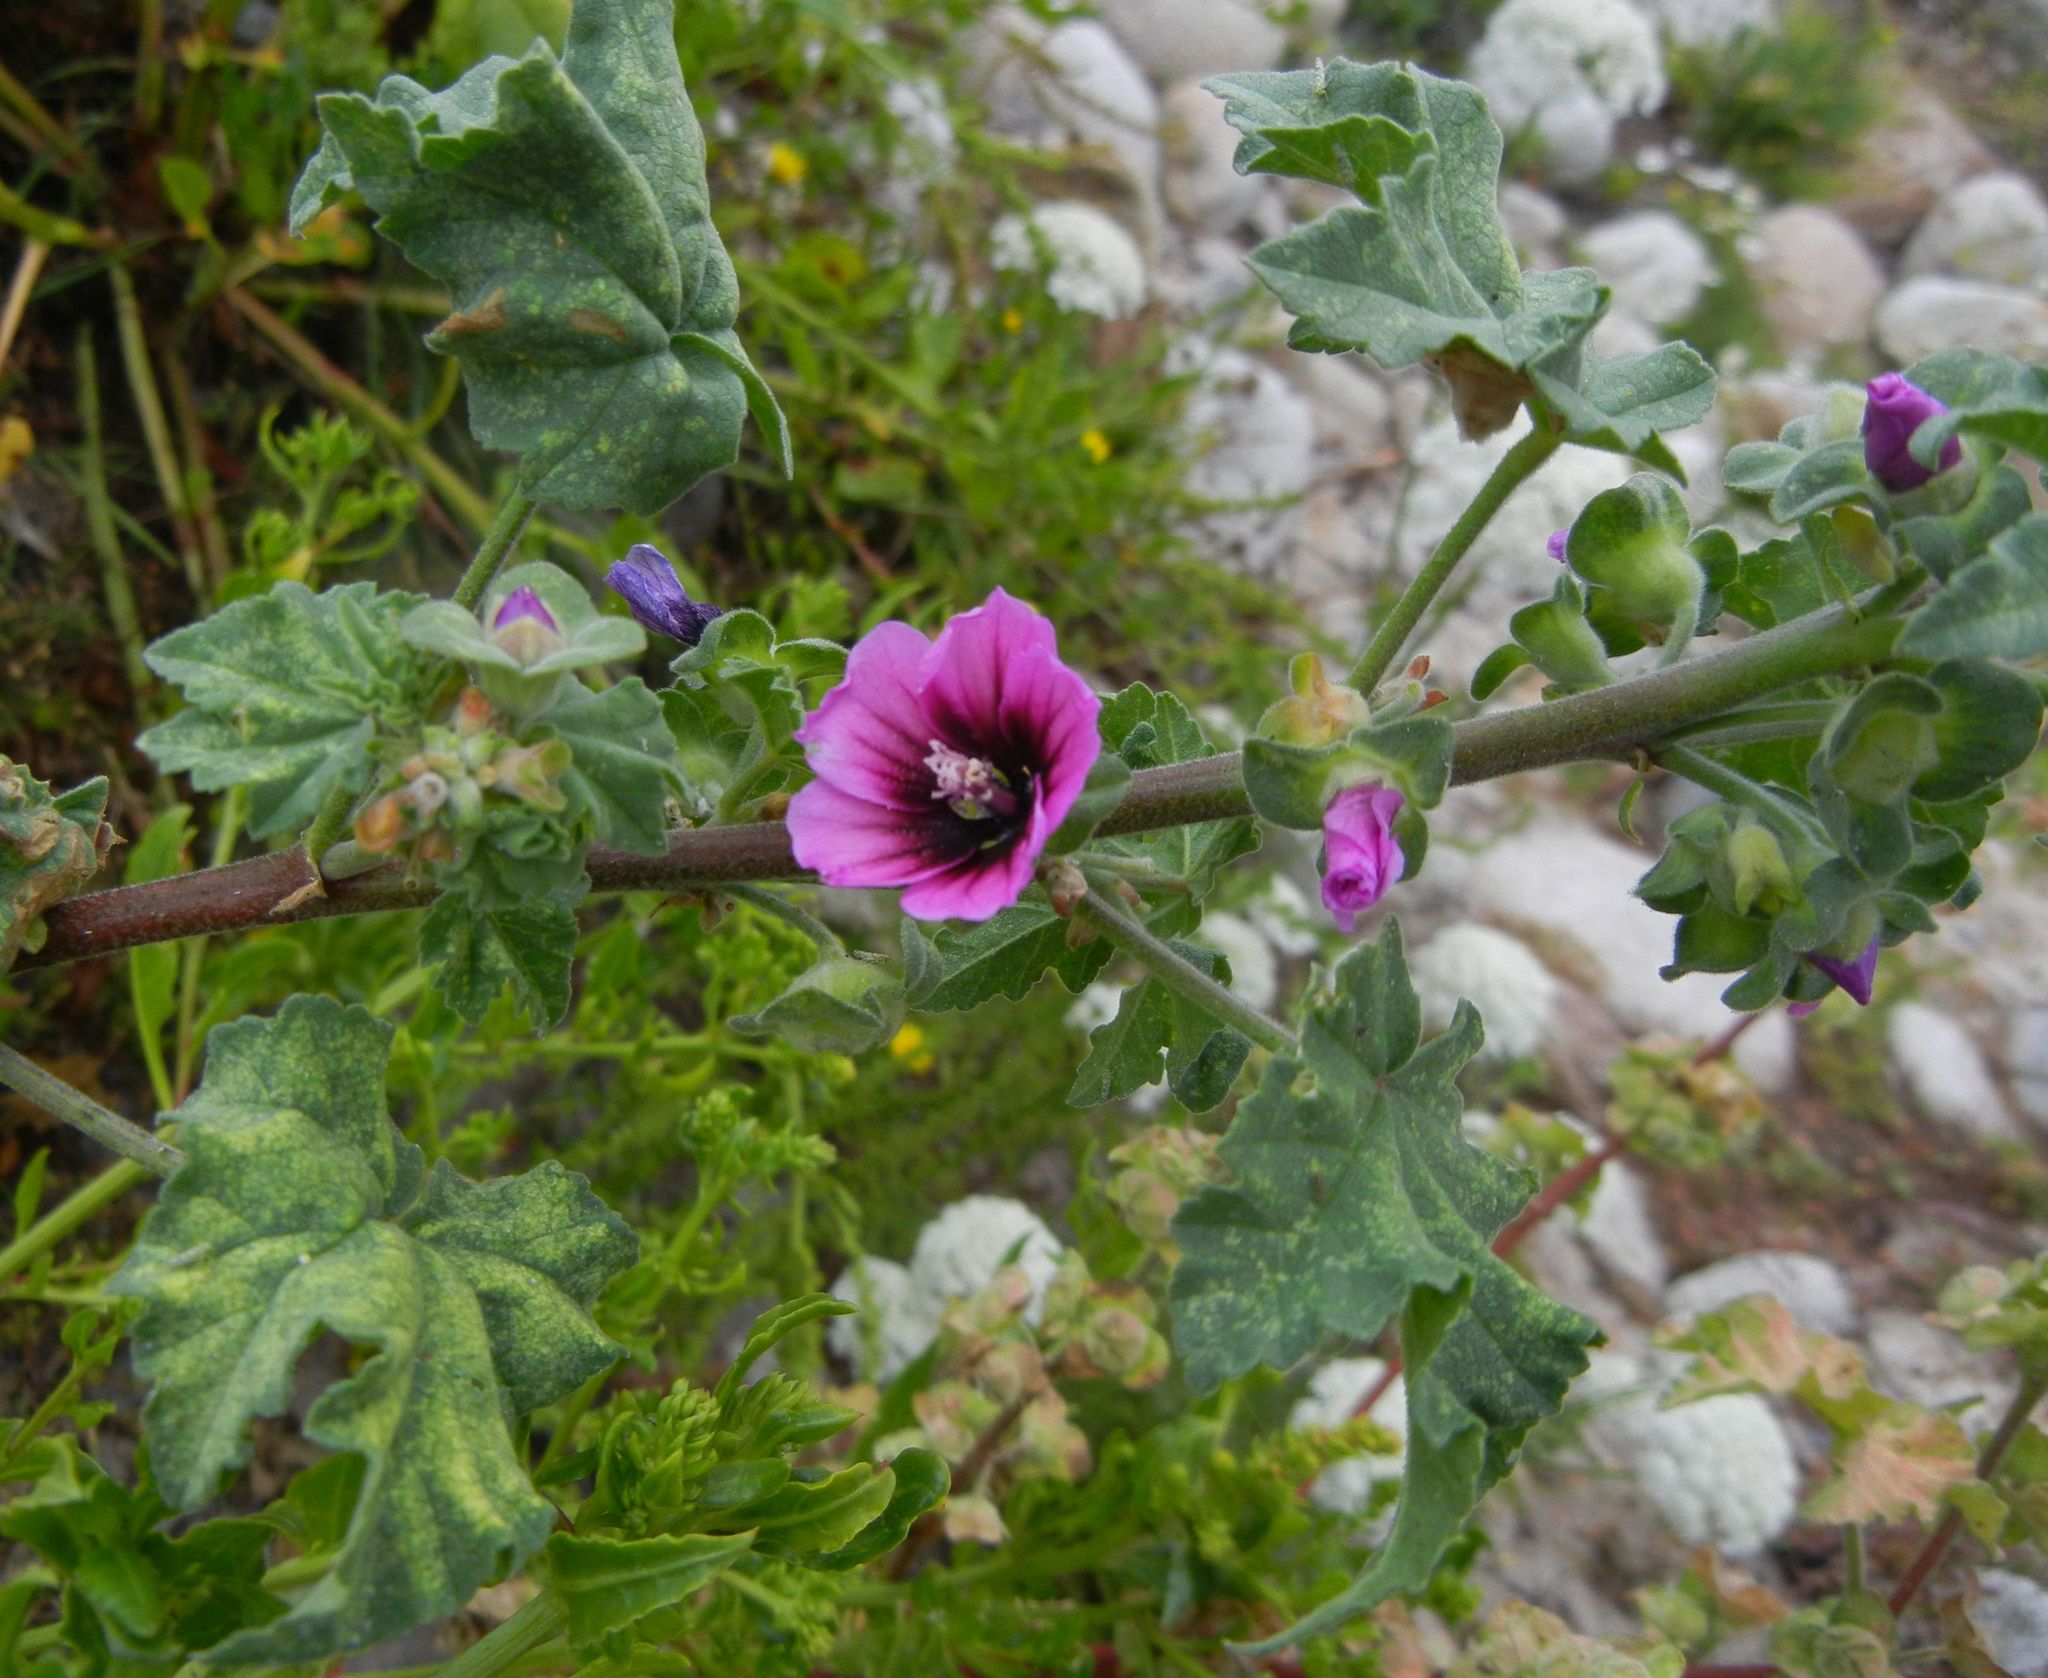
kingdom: Plantae
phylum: Tracheophyta
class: Magnoliopsida
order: Malvales
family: Malvaceae
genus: Malva
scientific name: Malva arborea
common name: Tree mallow
